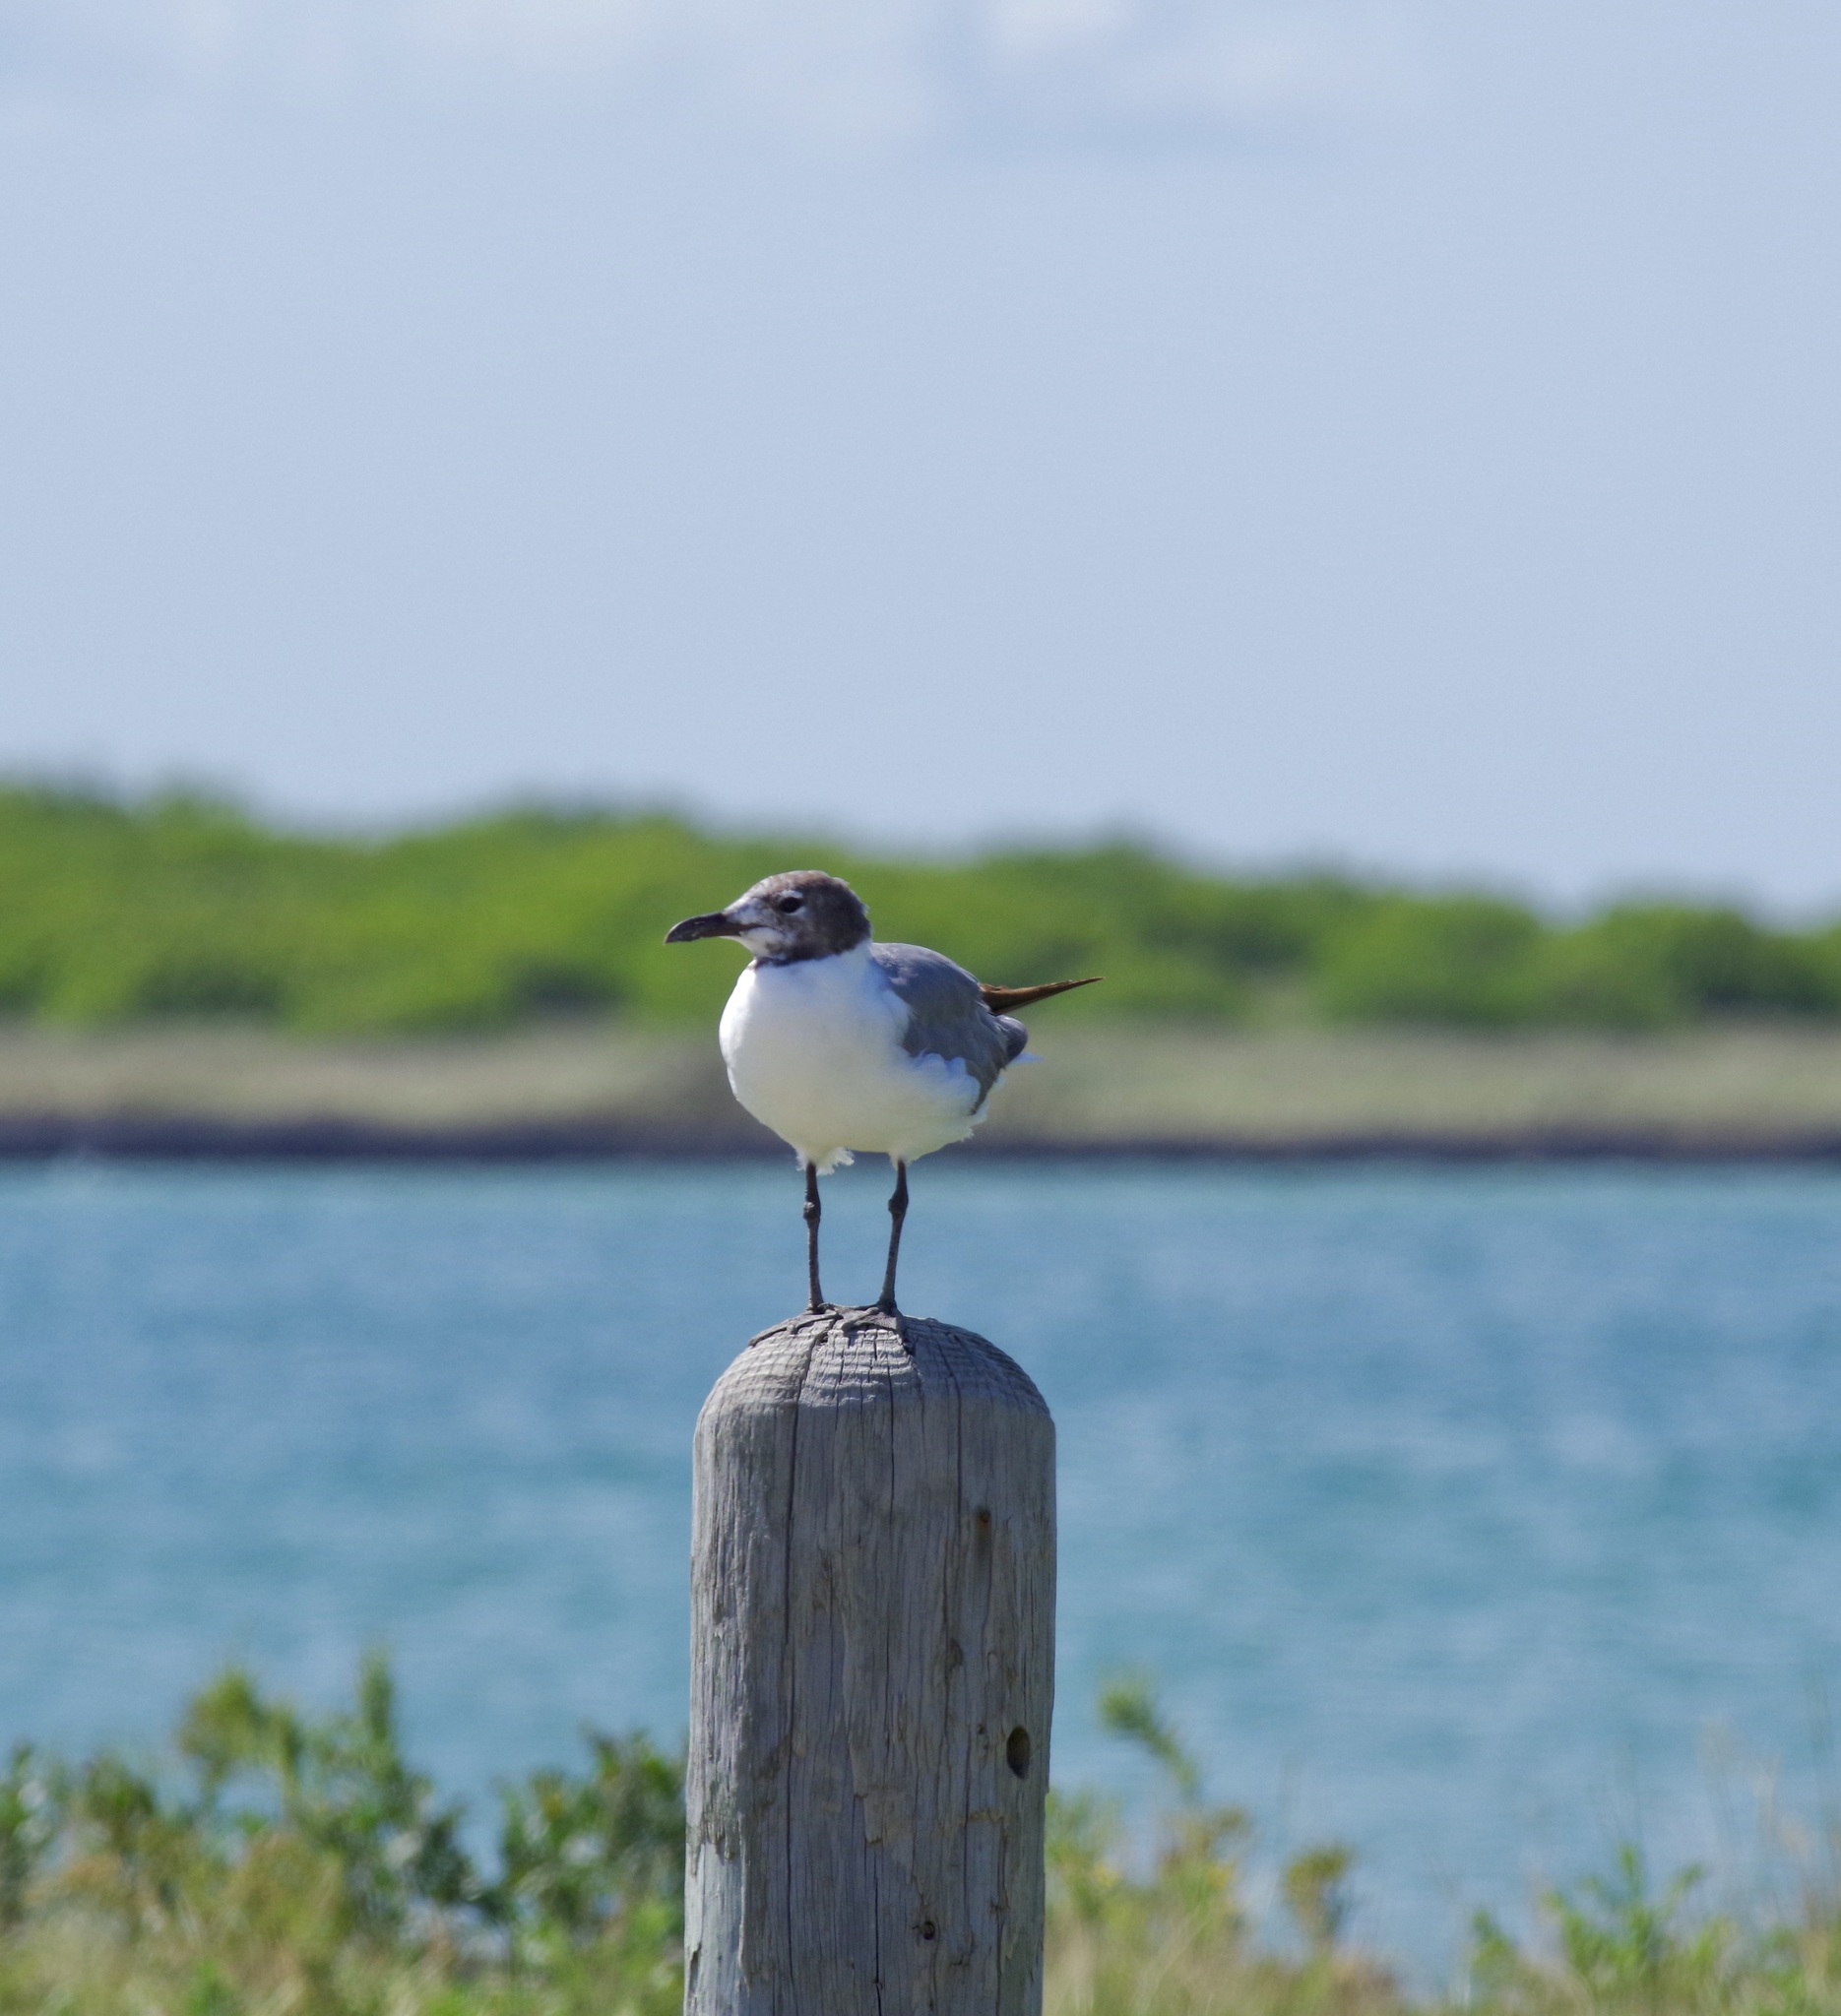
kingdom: Animalia
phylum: Chordata
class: Aves
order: Charadriiformes
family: Laridae
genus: Leucophaeus
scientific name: Leucophaeus atricilla
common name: Laughing gull
